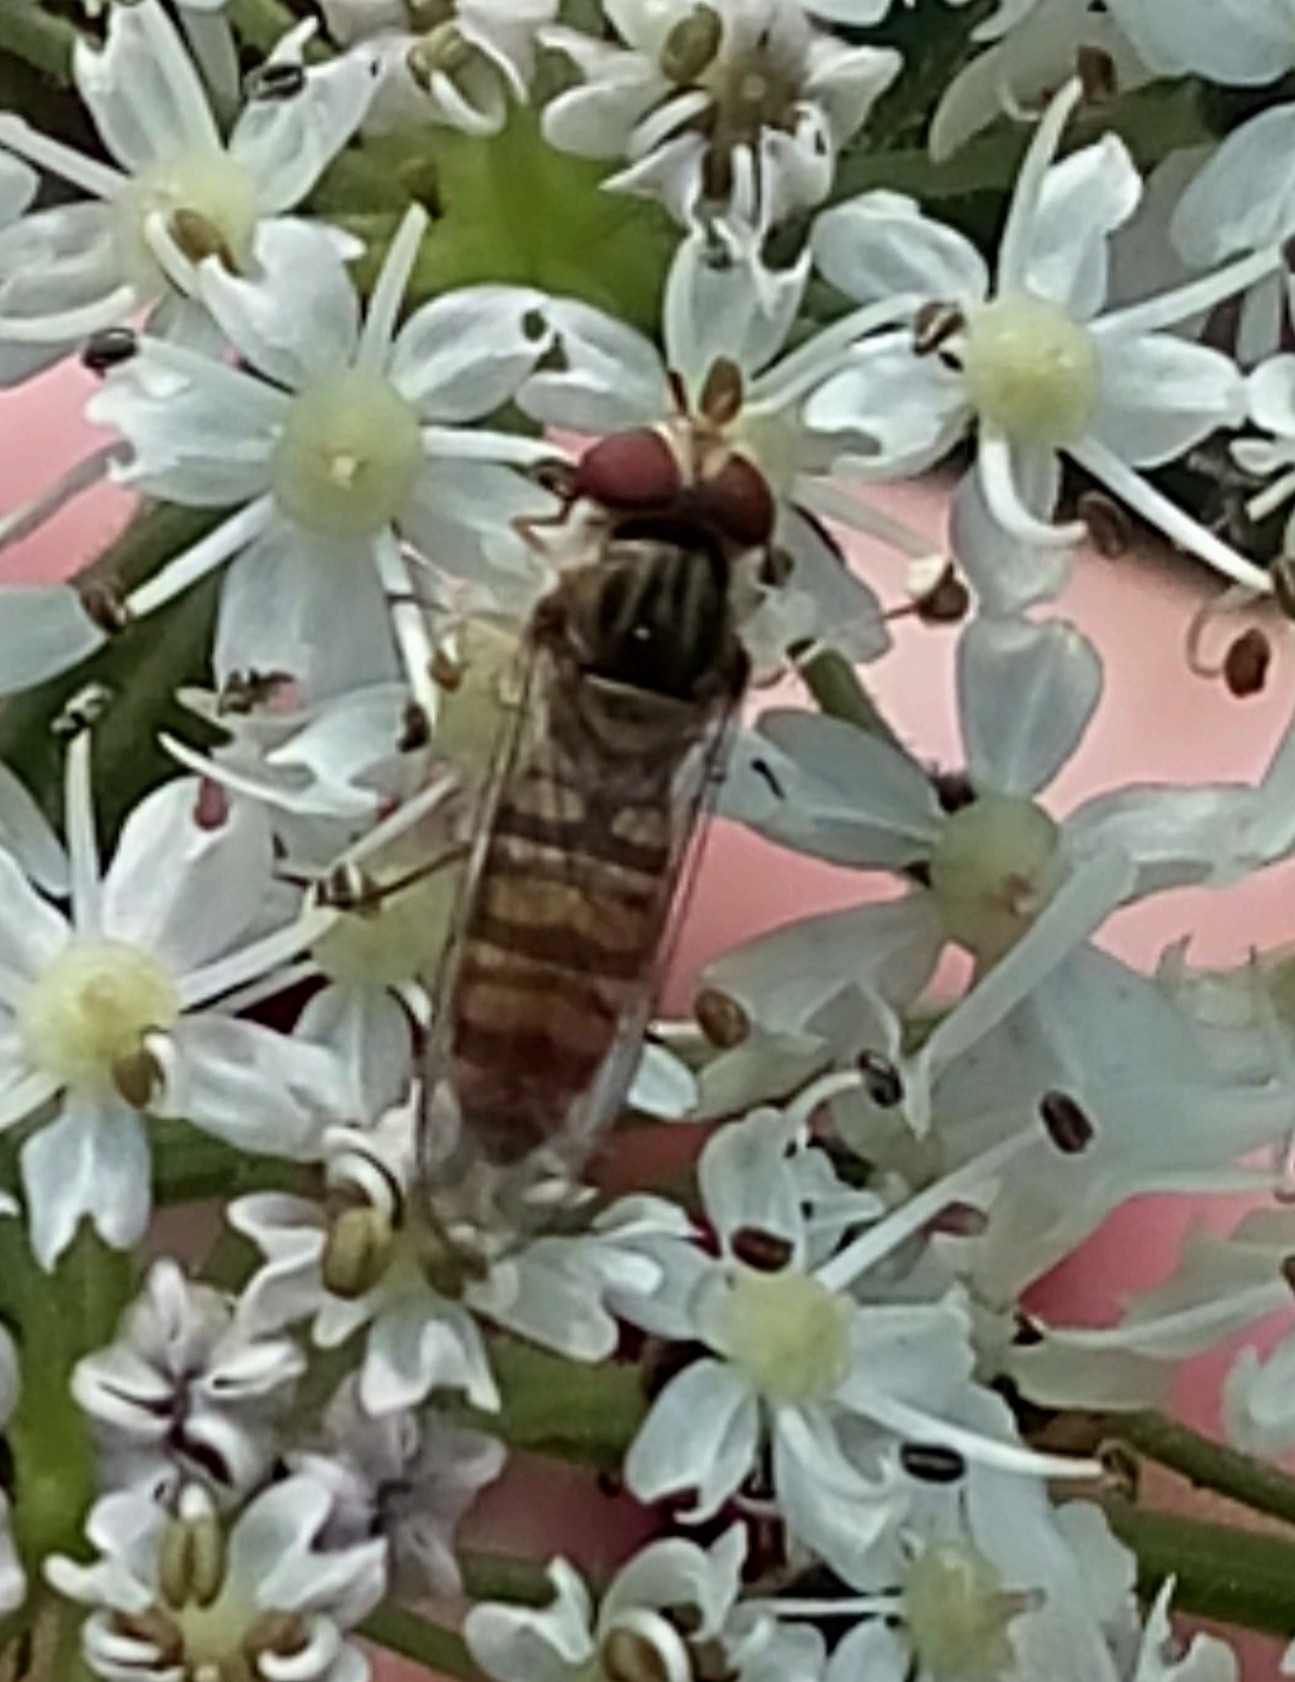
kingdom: Animalia
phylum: Arthropoda
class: Insecta
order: Diptera
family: Syrphidae
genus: Episyrphus
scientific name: Episyrphus balteatus
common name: Marmalade hoverfly
